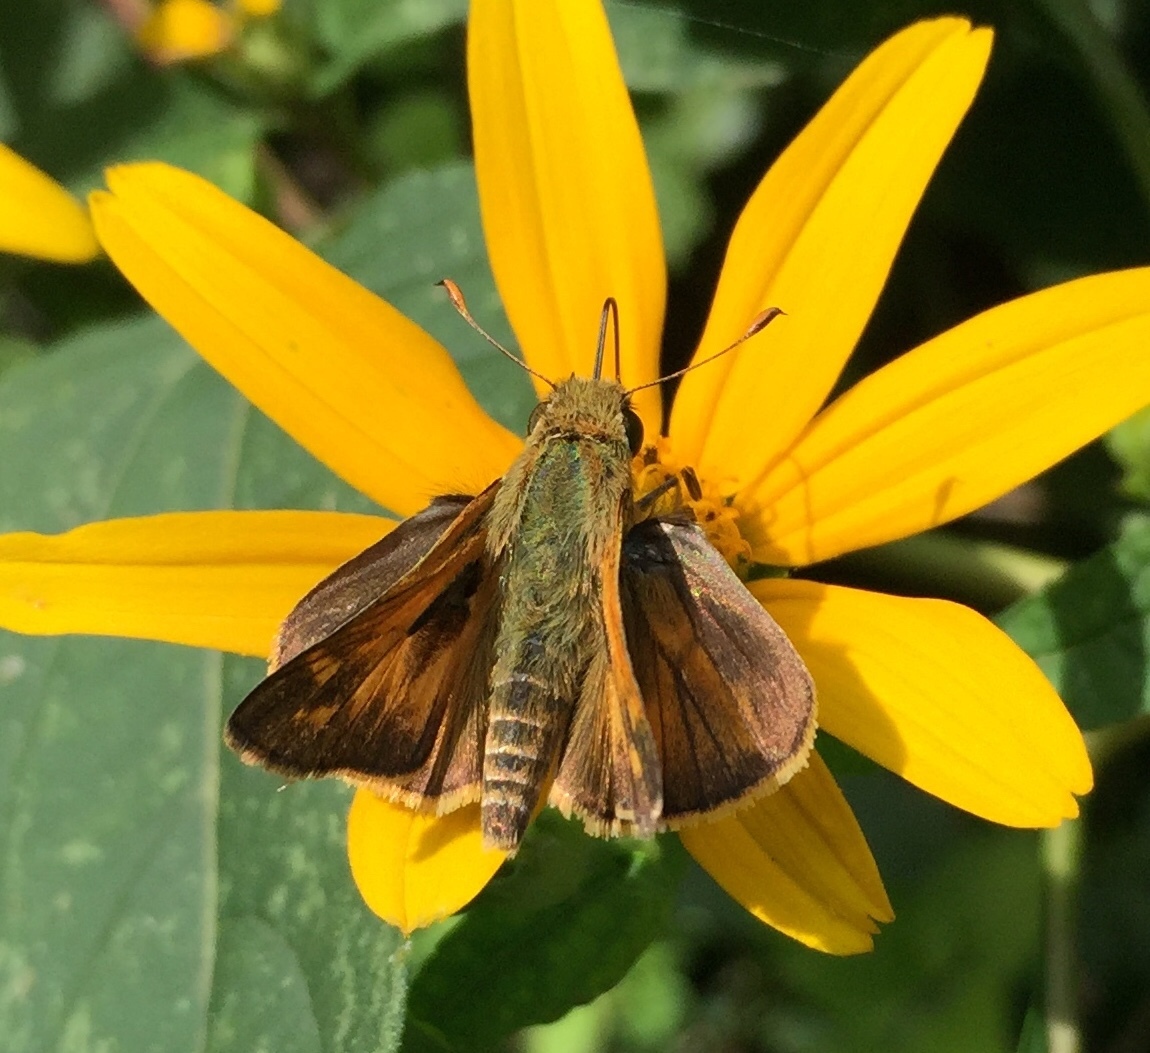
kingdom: Animalia
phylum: Arthropoda
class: Insecta
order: Lepidoptera
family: Hesperiidae
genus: Atalopedes
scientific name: Atalopedes
